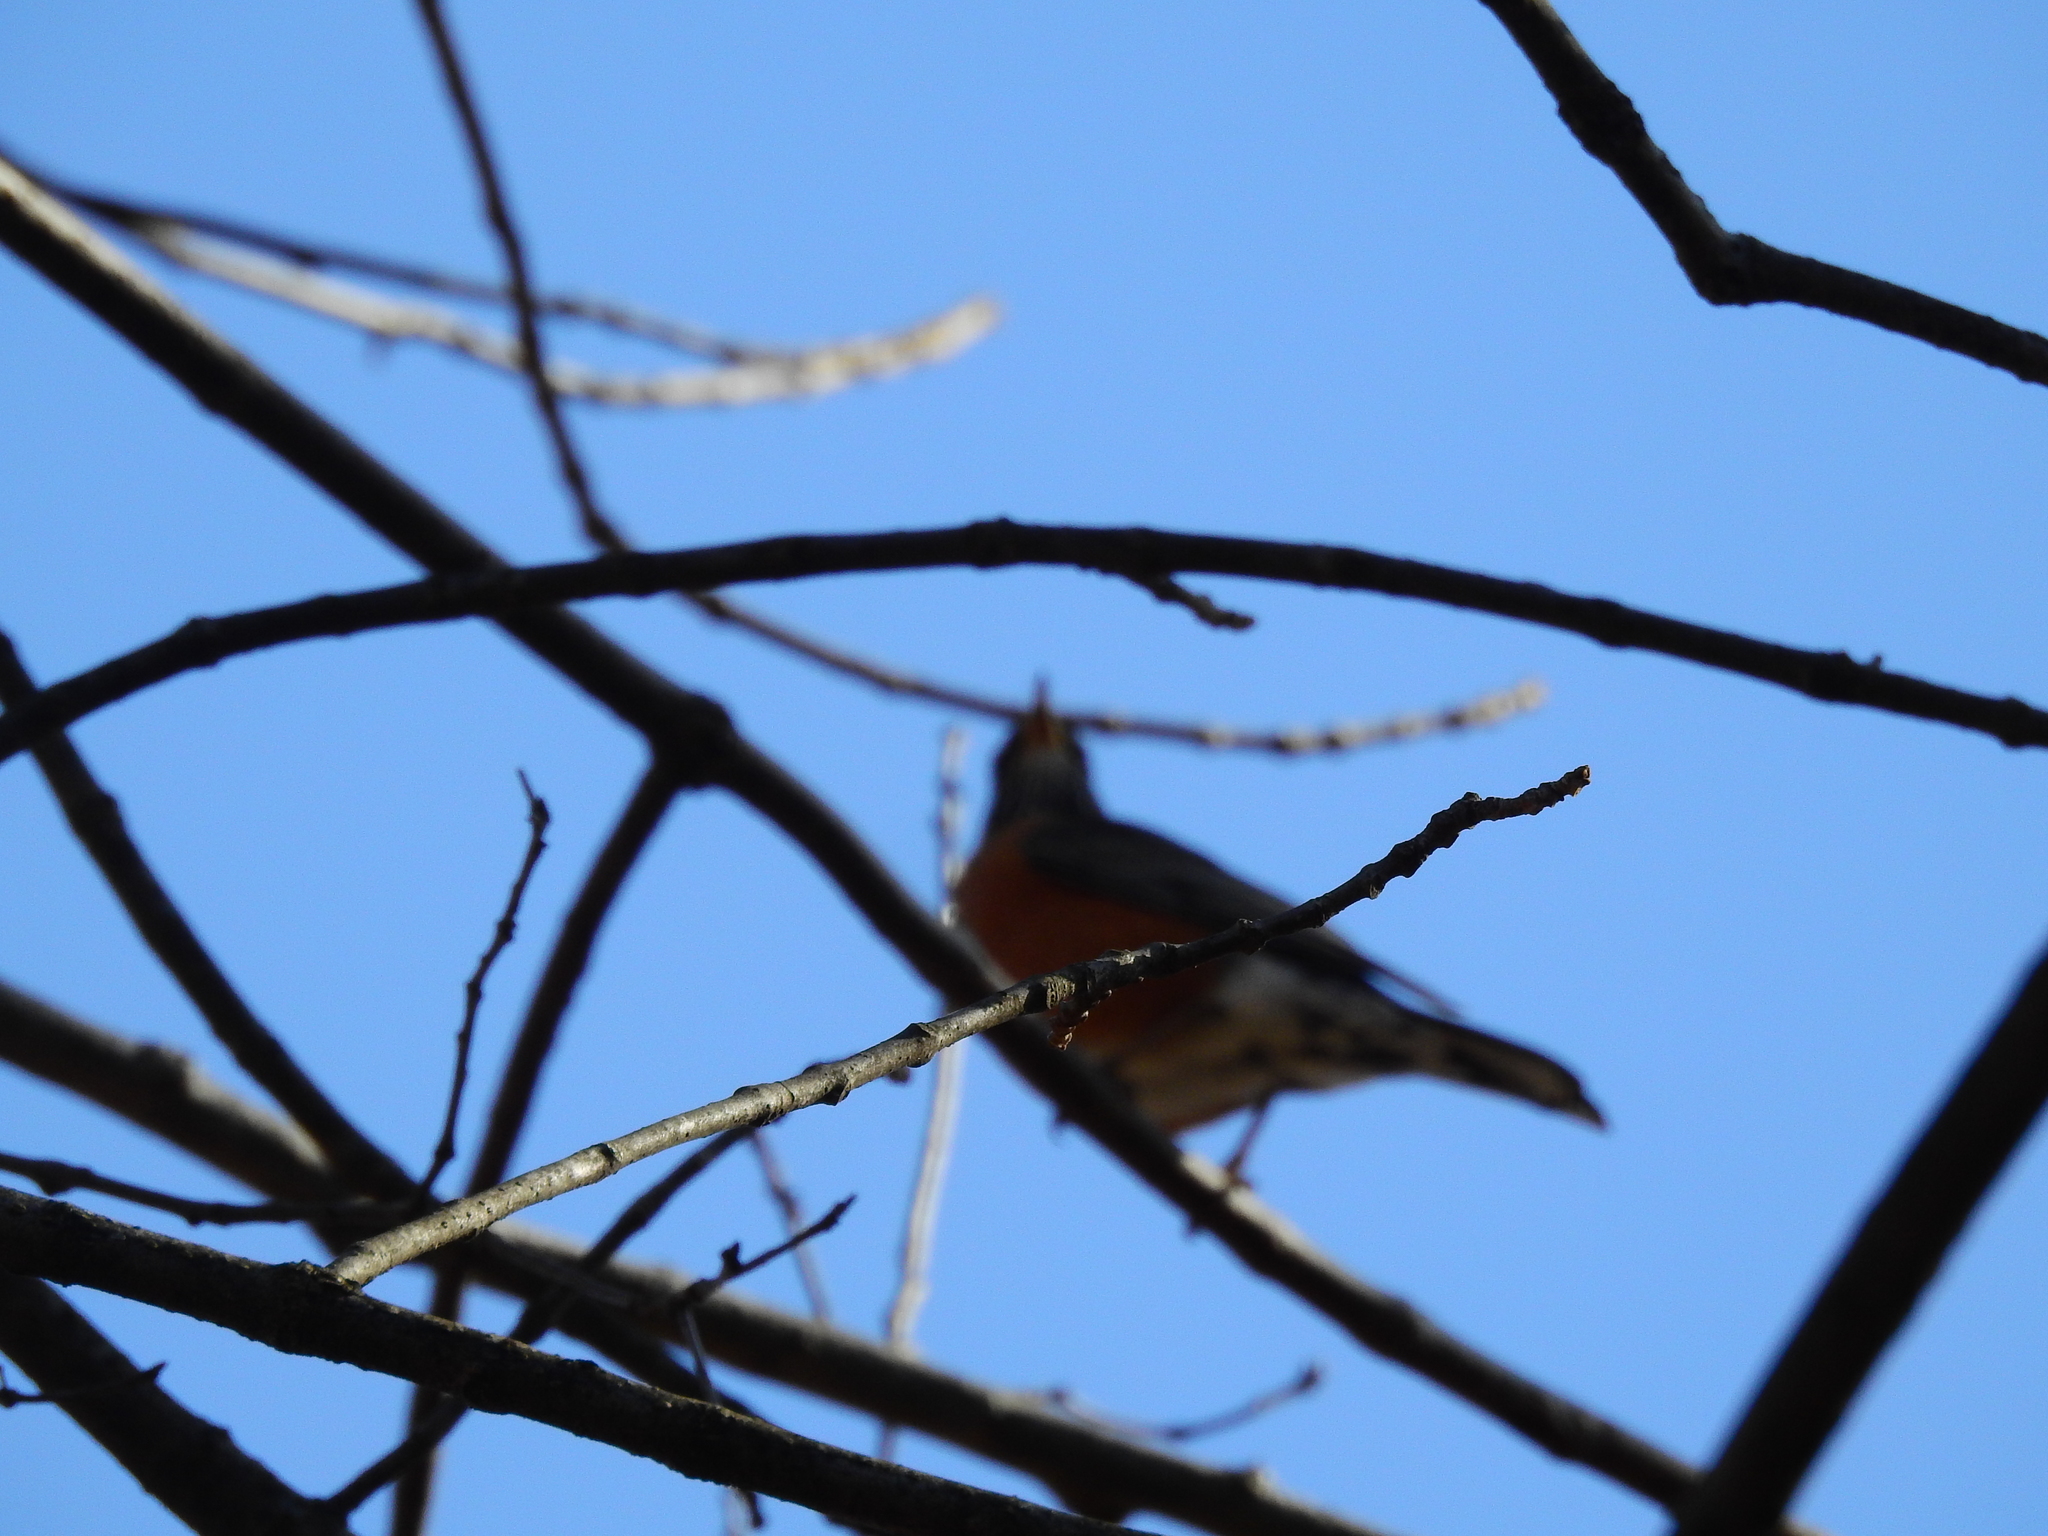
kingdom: Animalia
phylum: Chordata
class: Aves
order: Passeriformes
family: Turdidae
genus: Turdus
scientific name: Turdus migratorius
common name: American robin
